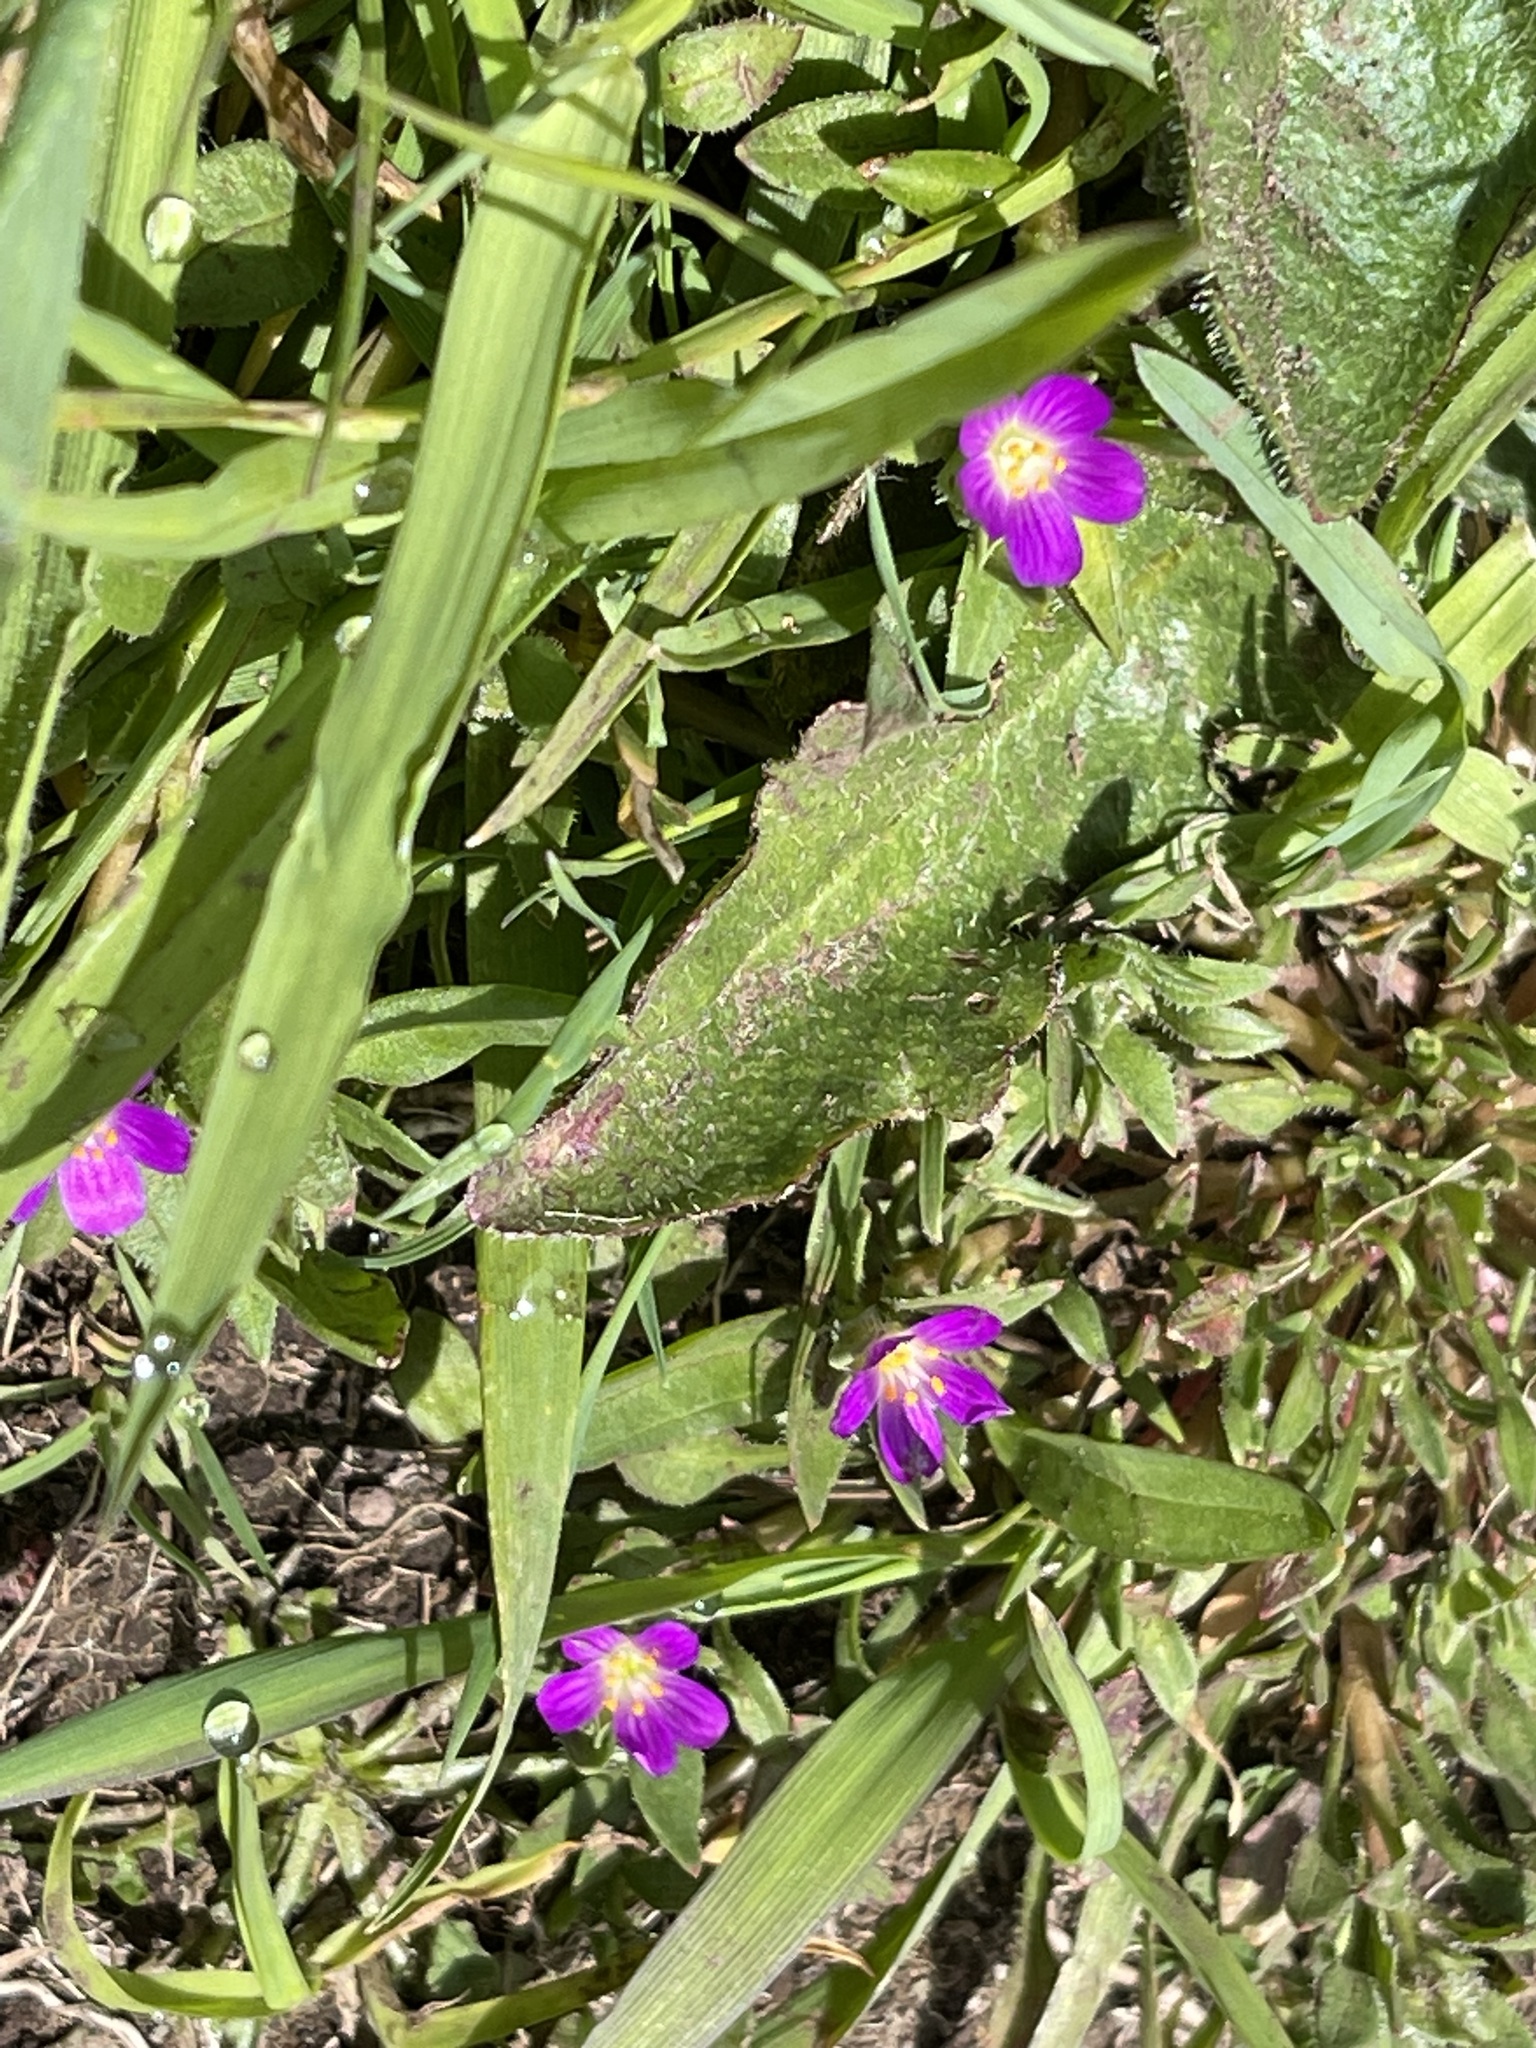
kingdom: Plantae
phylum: Tracheophyta
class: Magnoliopsida
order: Caryophyllales
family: Montiaceae
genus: Calandrinia
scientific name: Calandrinia menziesii
